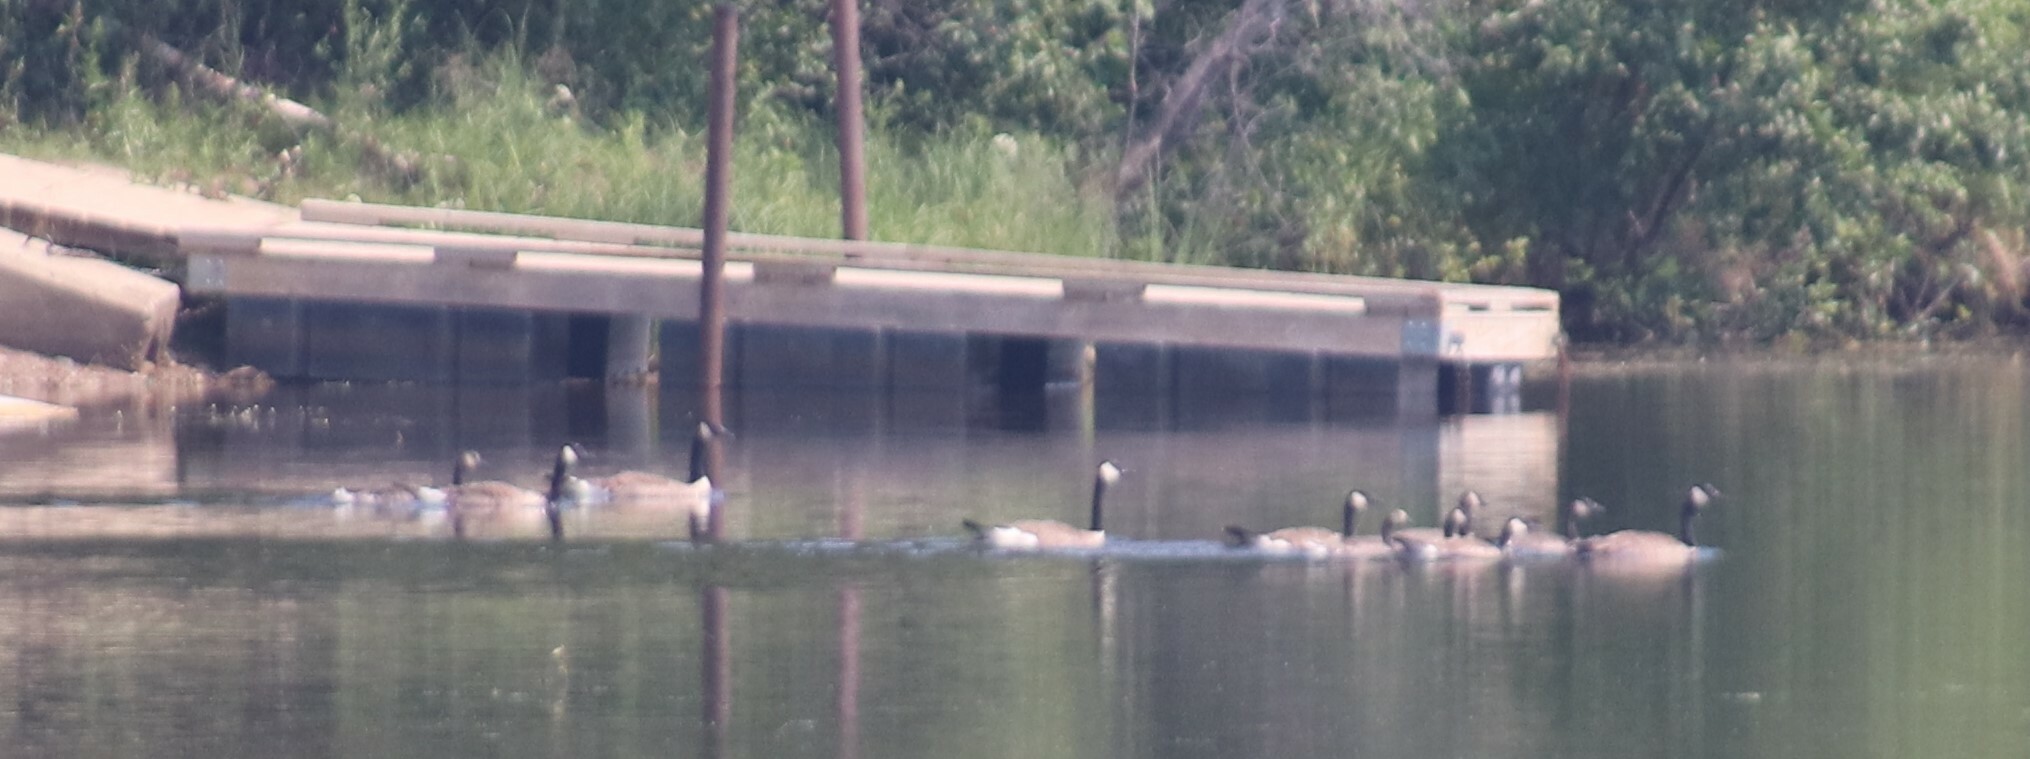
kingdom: Animalia
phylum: Chordata
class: Aves
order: Anseriformes
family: Anatidae
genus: Branta
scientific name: Branta canadensis
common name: Canada goose
